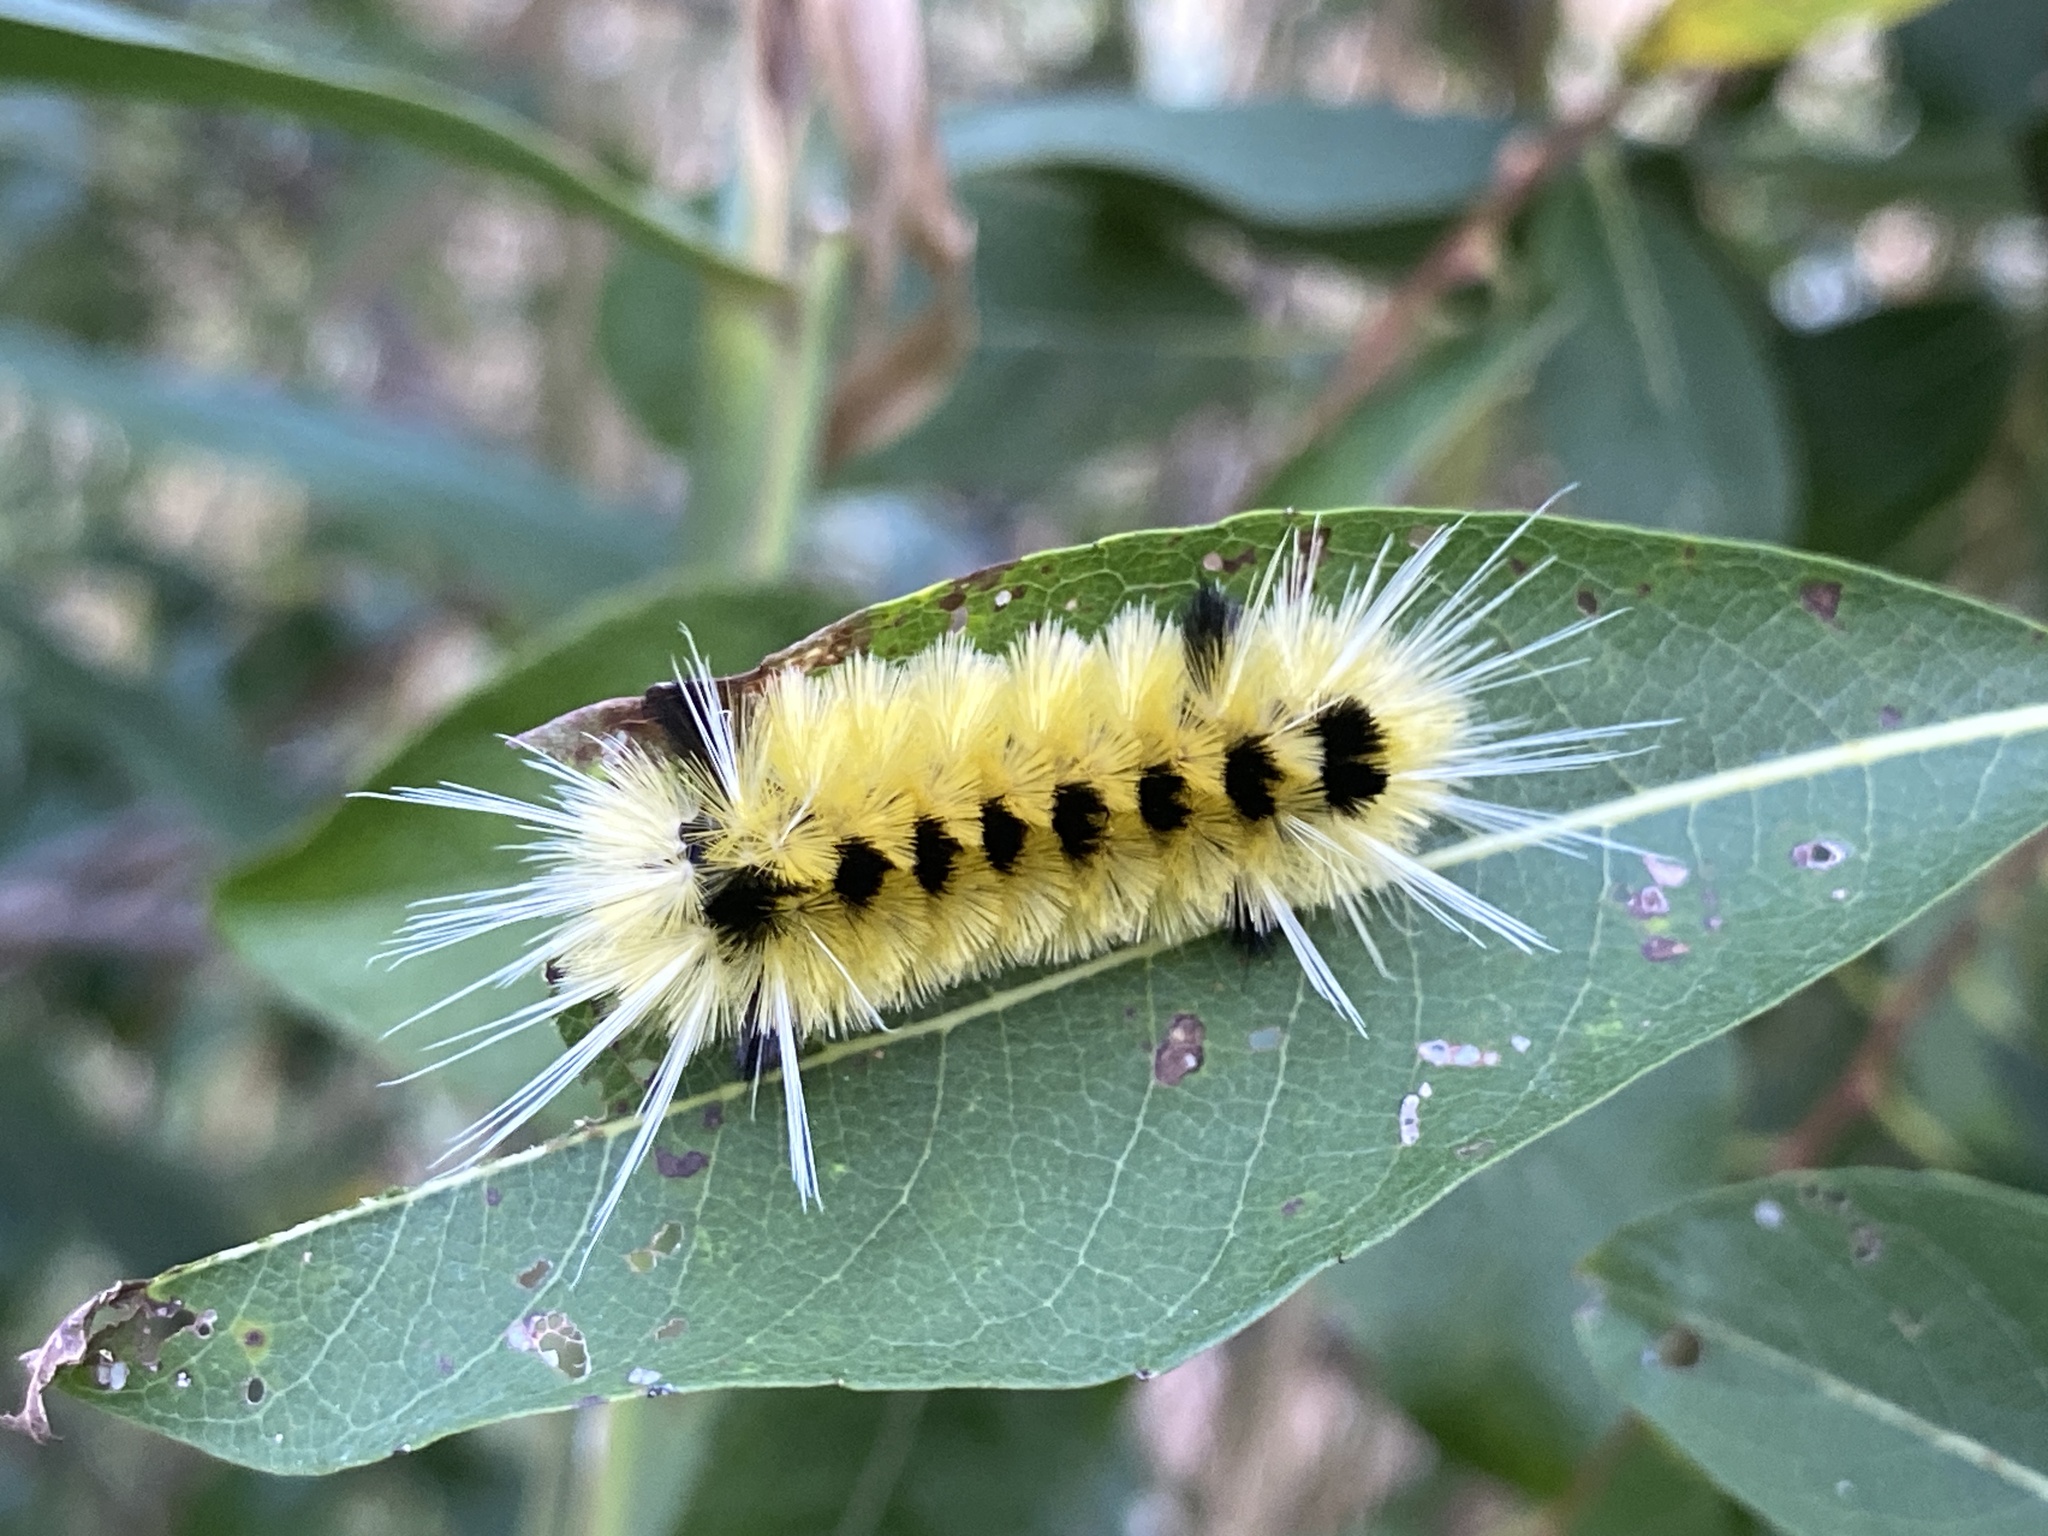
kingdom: Animalia
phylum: Arthropoda
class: Insecta
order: Lepidoptera
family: Erebidae
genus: Lophocampa
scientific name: Lophocampa maculata
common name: Spotted tussock moth
